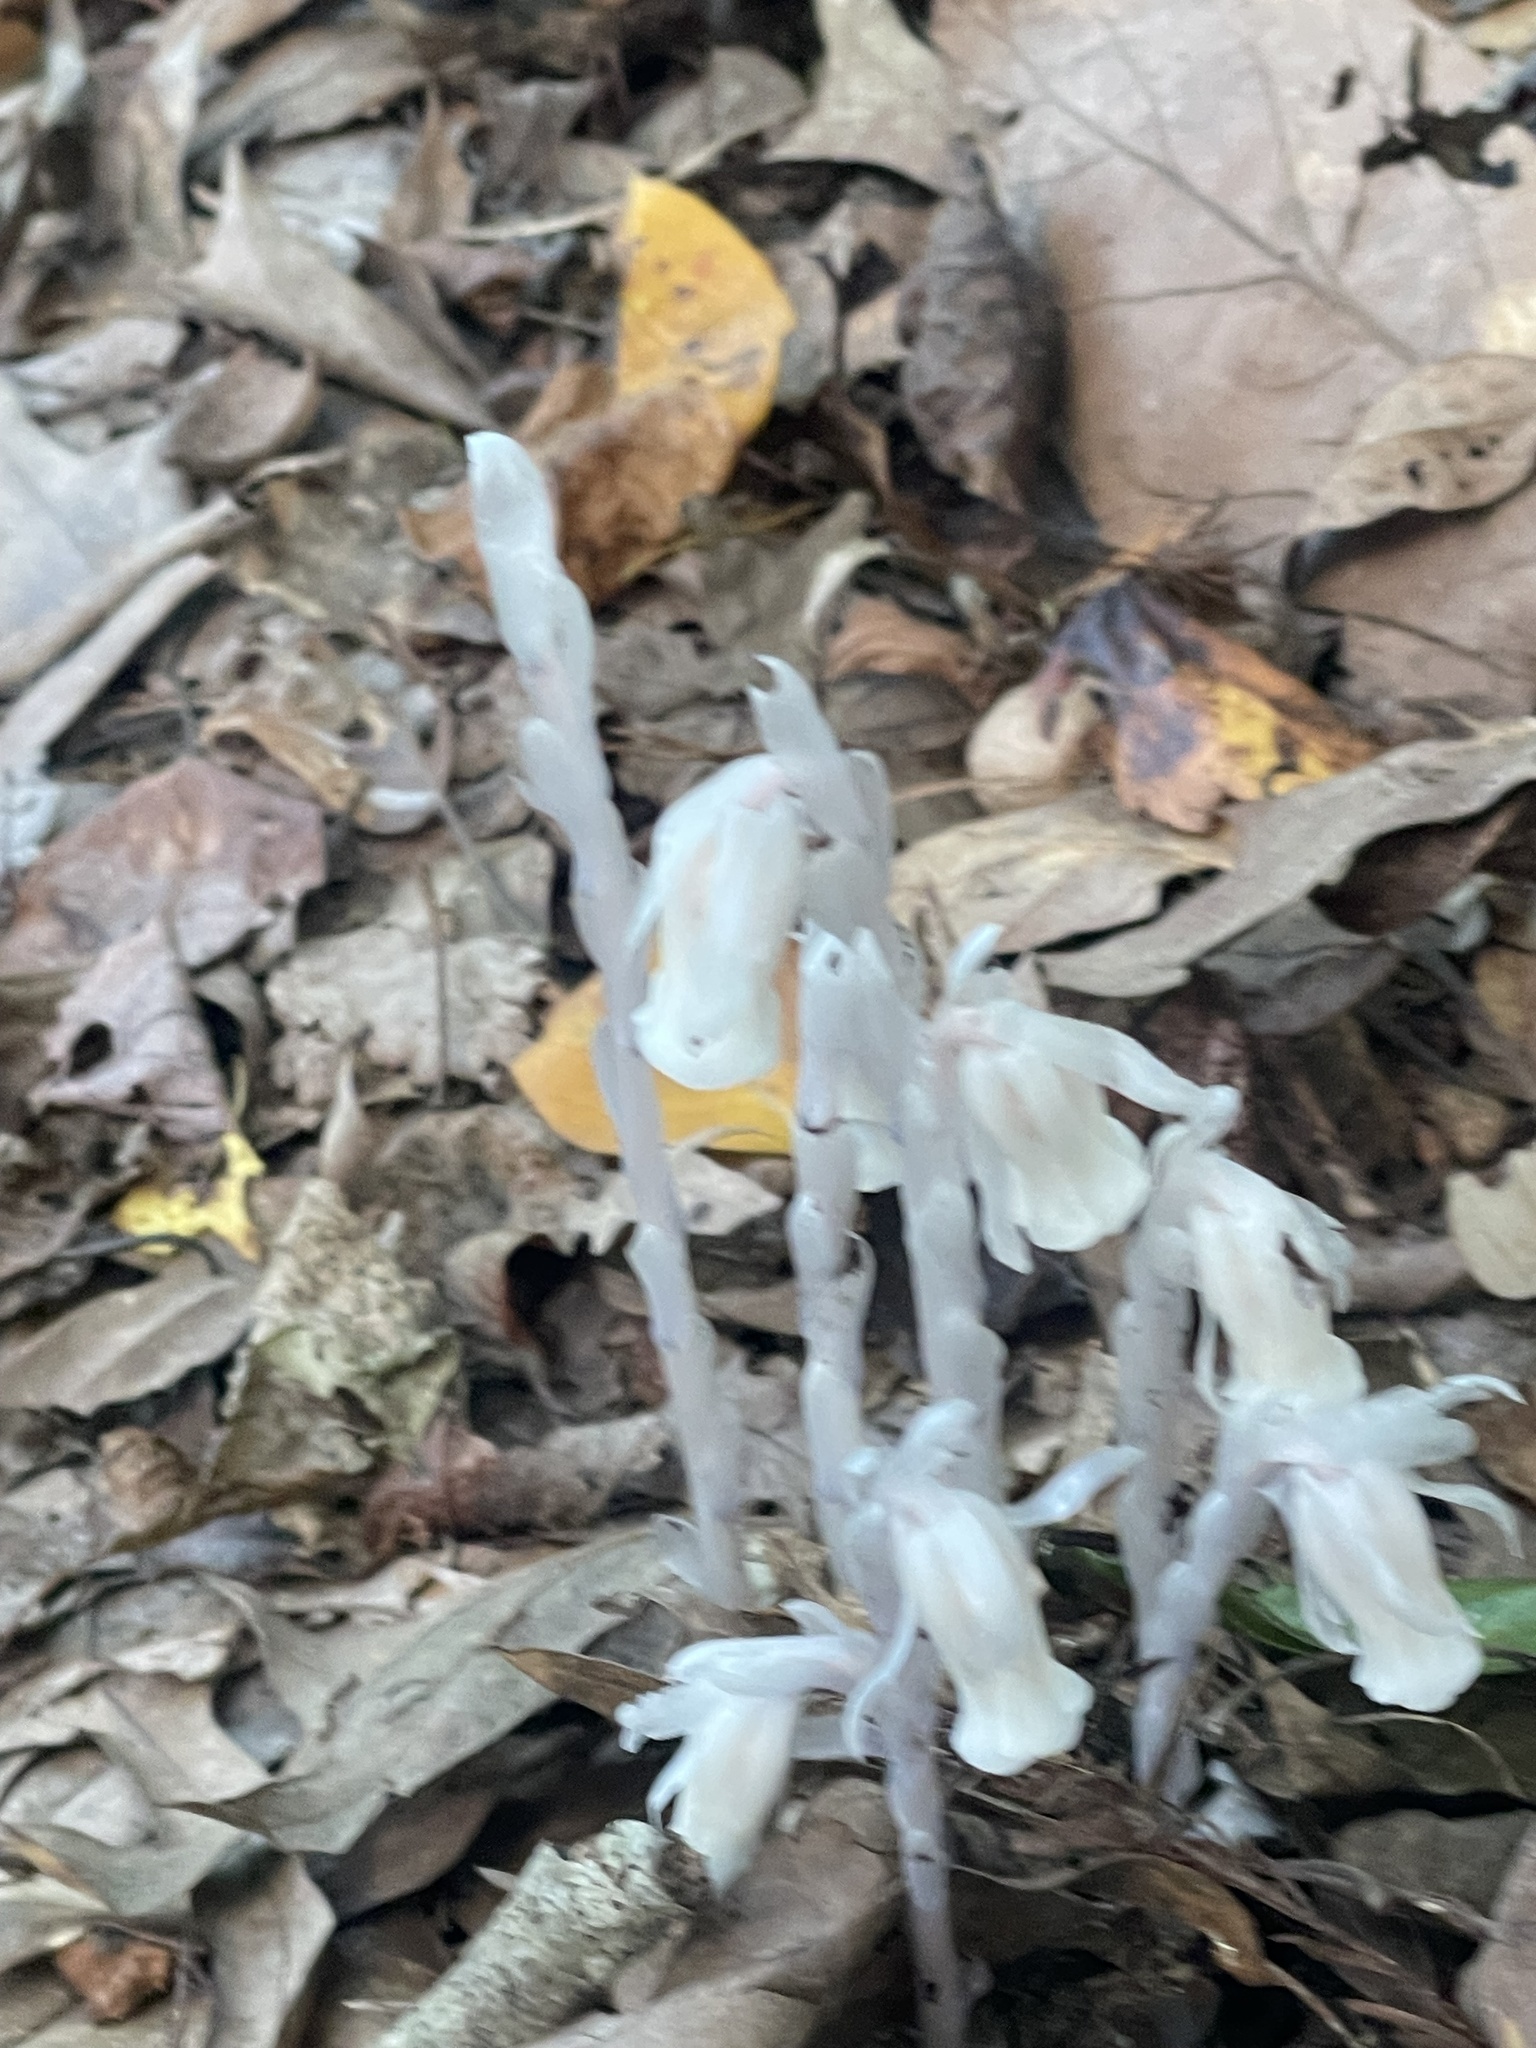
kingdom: Plantae
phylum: Tracheophyta
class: Magnoliopsida
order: Ericales
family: Ericaceae
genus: Monotropa
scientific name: Monotropa uniflora
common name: Convulsion root
